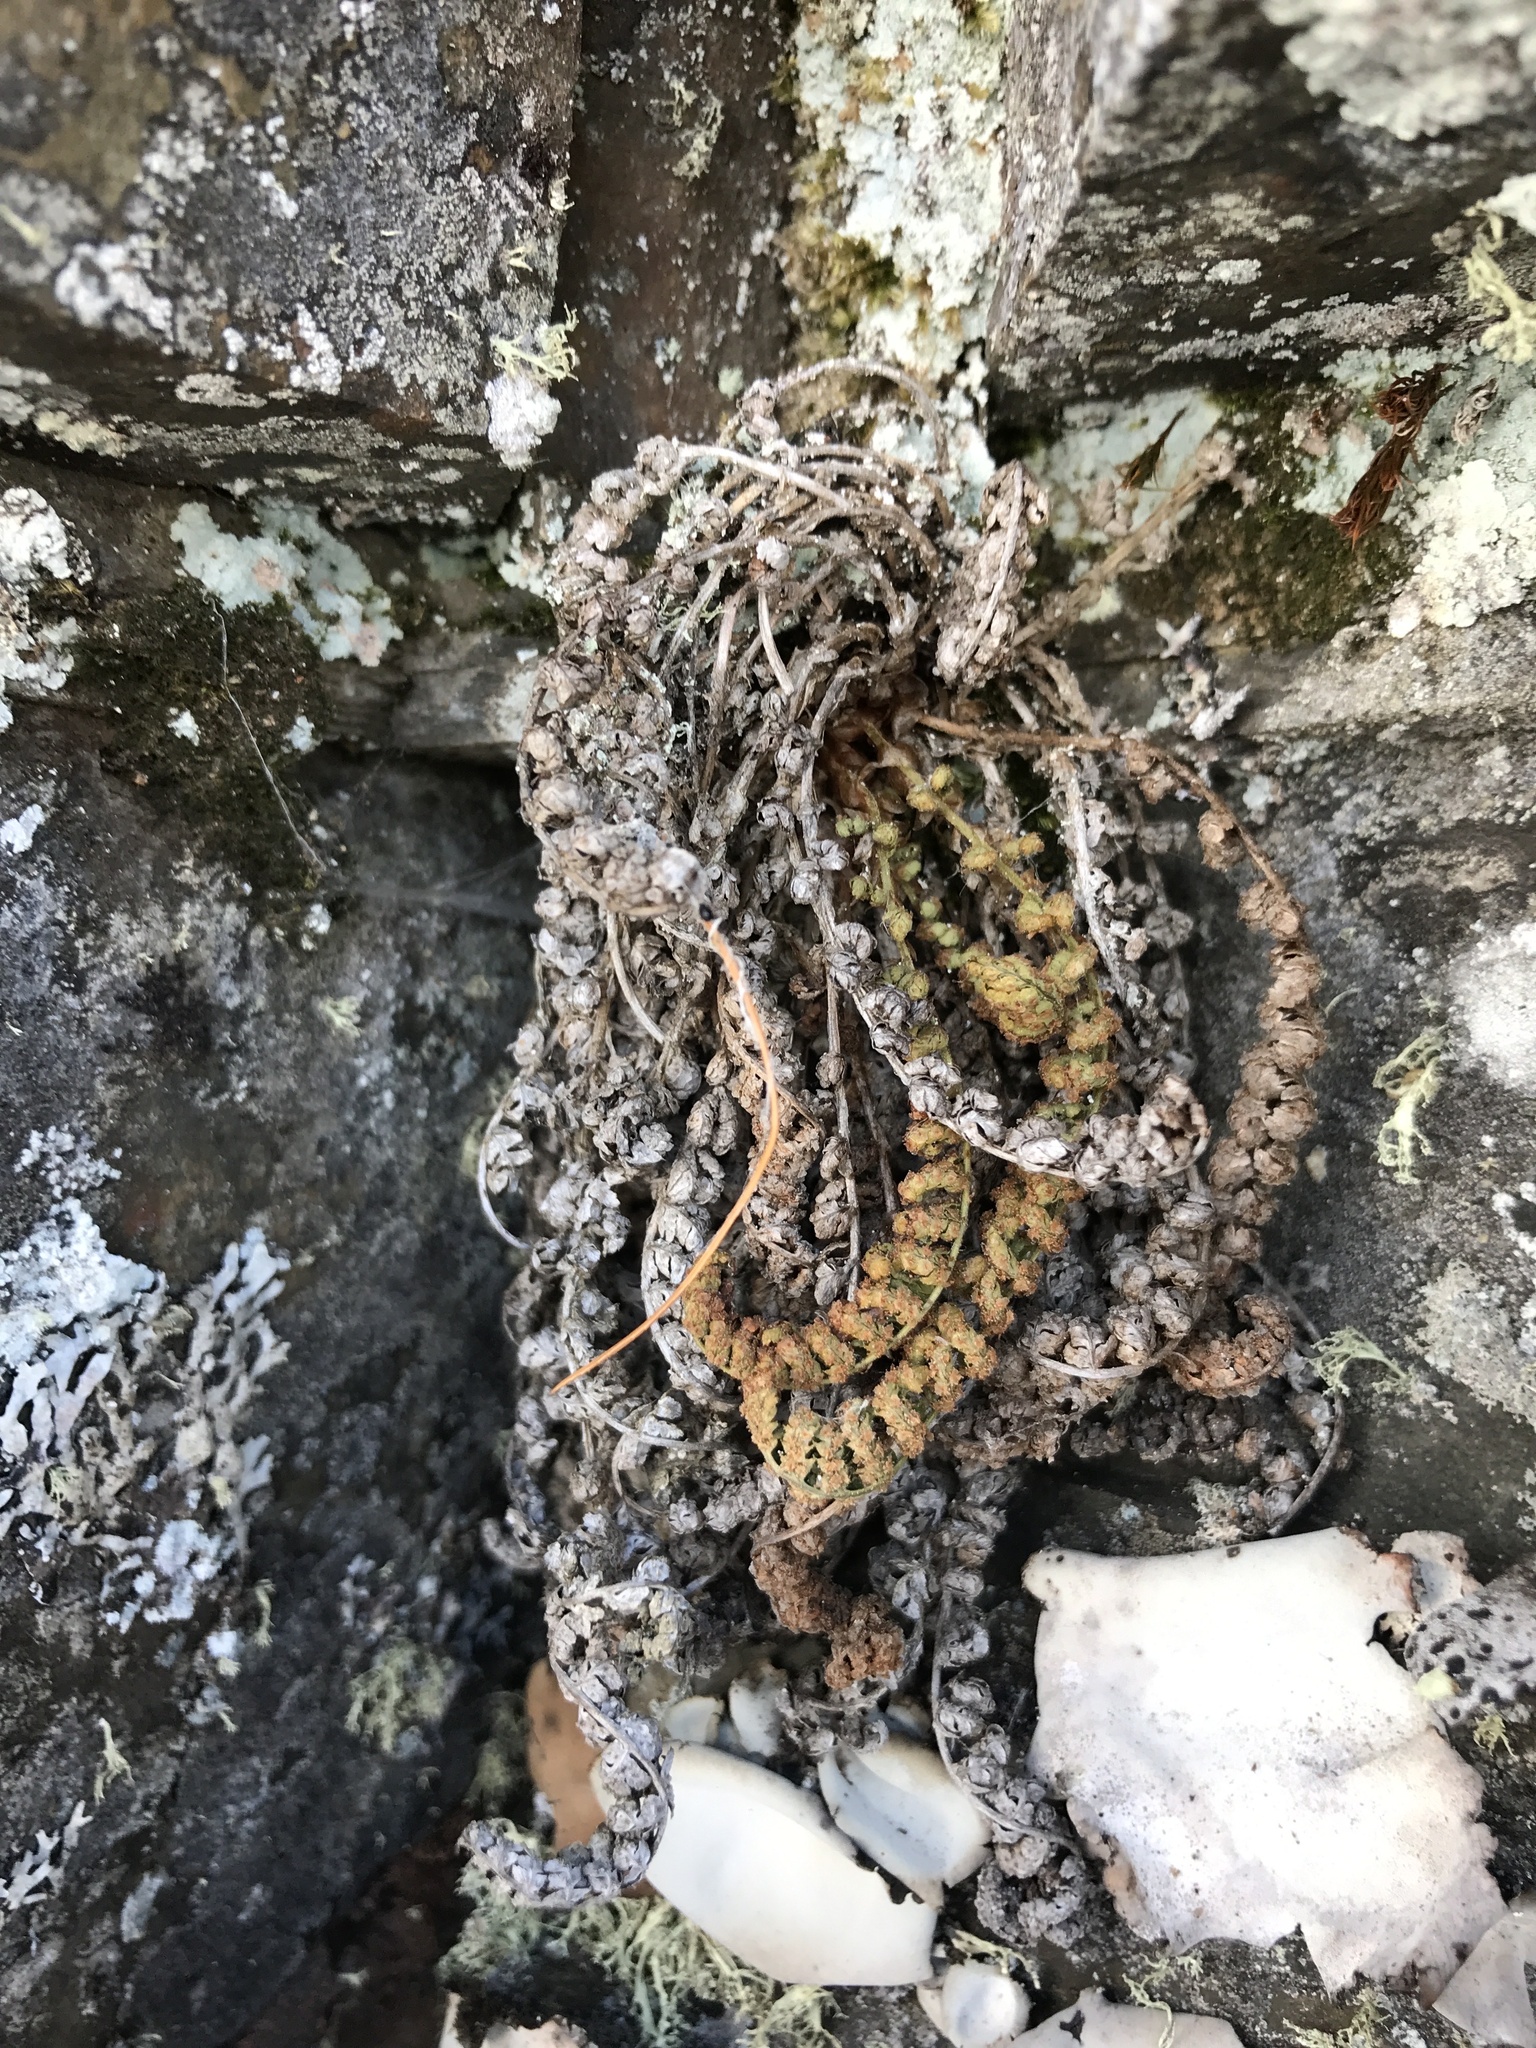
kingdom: Plantae
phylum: Tracheophyta
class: Polypodiopsida
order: Polypodiales
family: Dryopteridaceae
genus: Dryopteris
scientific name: Dryopteris fragrans
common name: Fragrant wood fern
